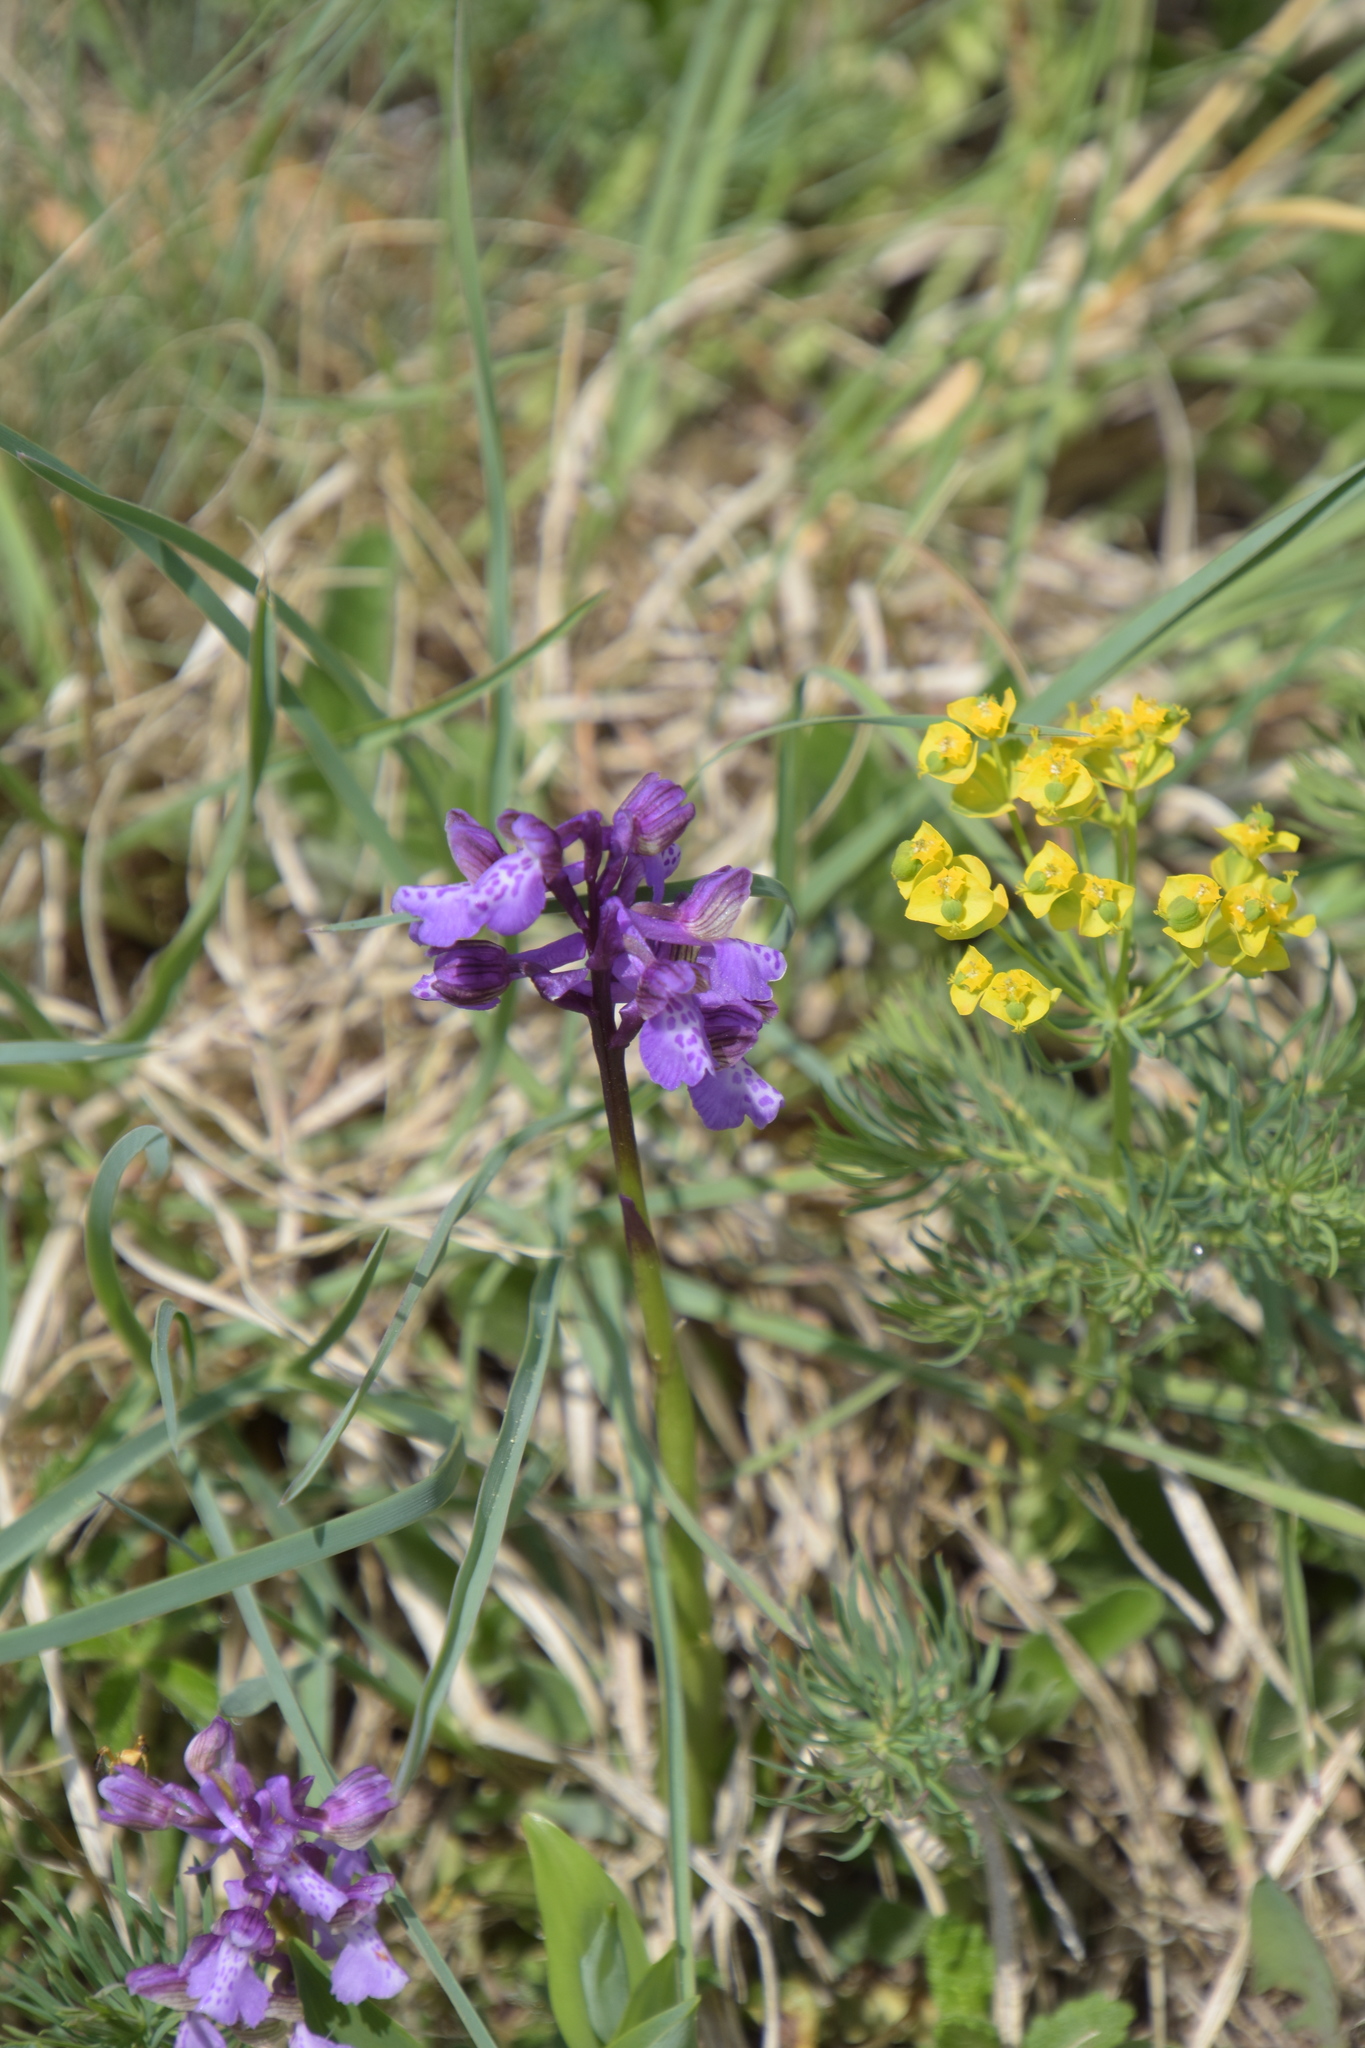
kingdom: Plantae
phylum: Tracheophyta
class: Liliopsida
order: Asparagales
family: Orchidaceae
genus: Anacamptis
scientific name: Anacamptis morio
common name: Green-winged orchid
